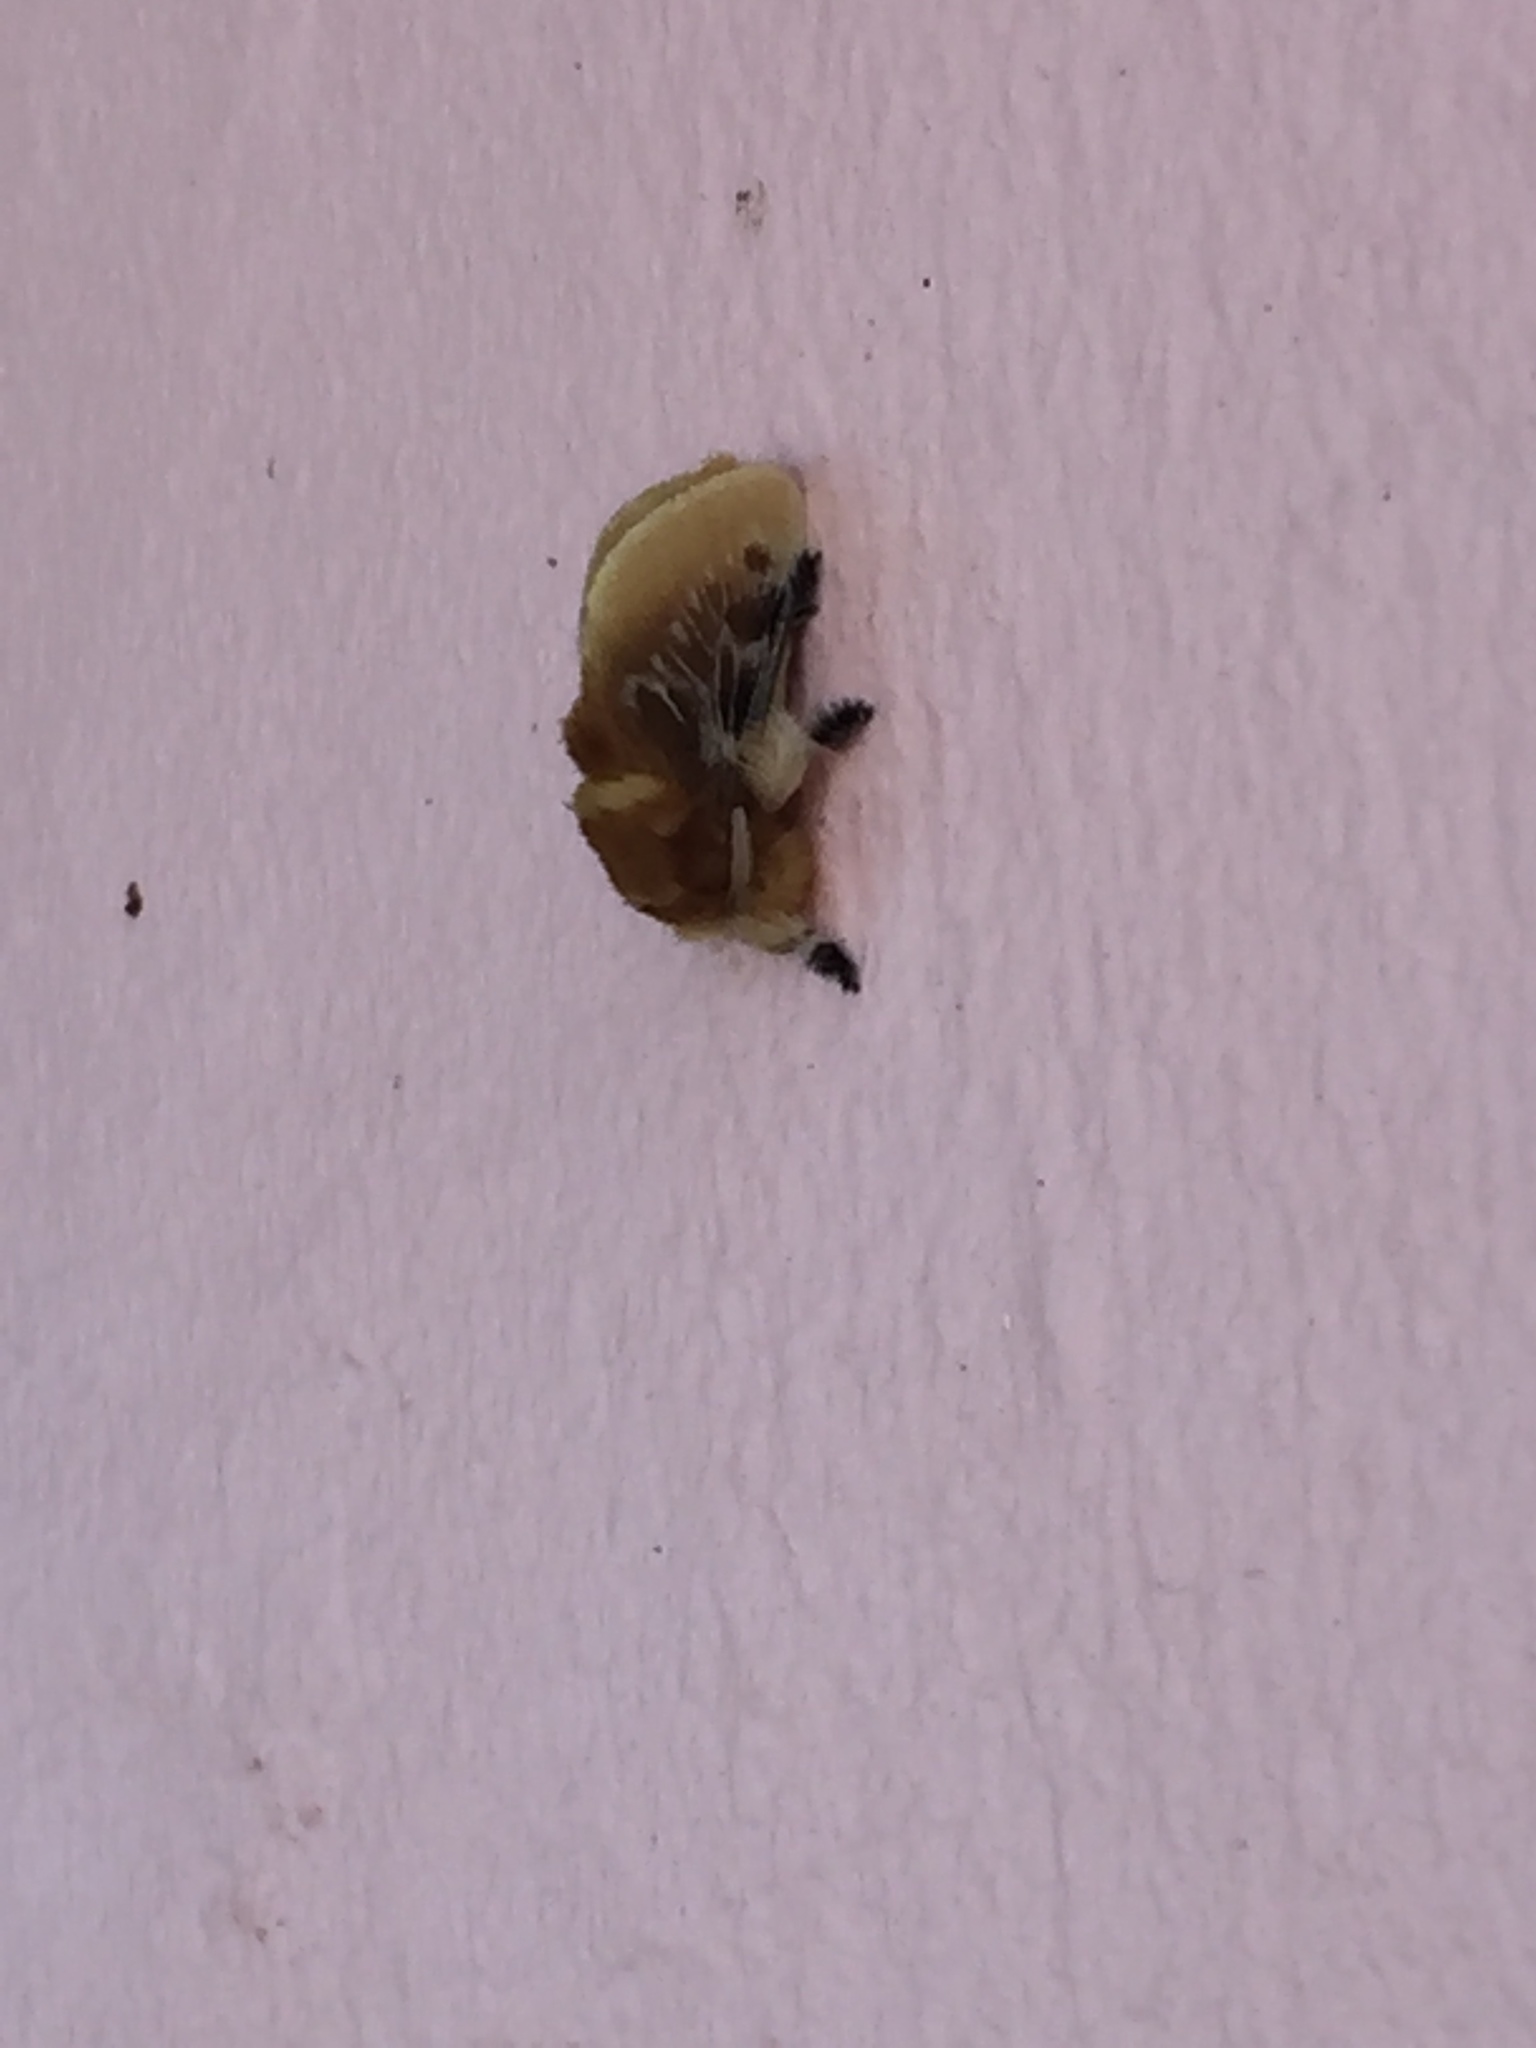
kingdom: Animalia
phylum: Arthropoda
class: Insecta
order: Lepidoptera
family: Megalopygidae
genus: Megalopyge
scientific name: Megalopyge opercularis
